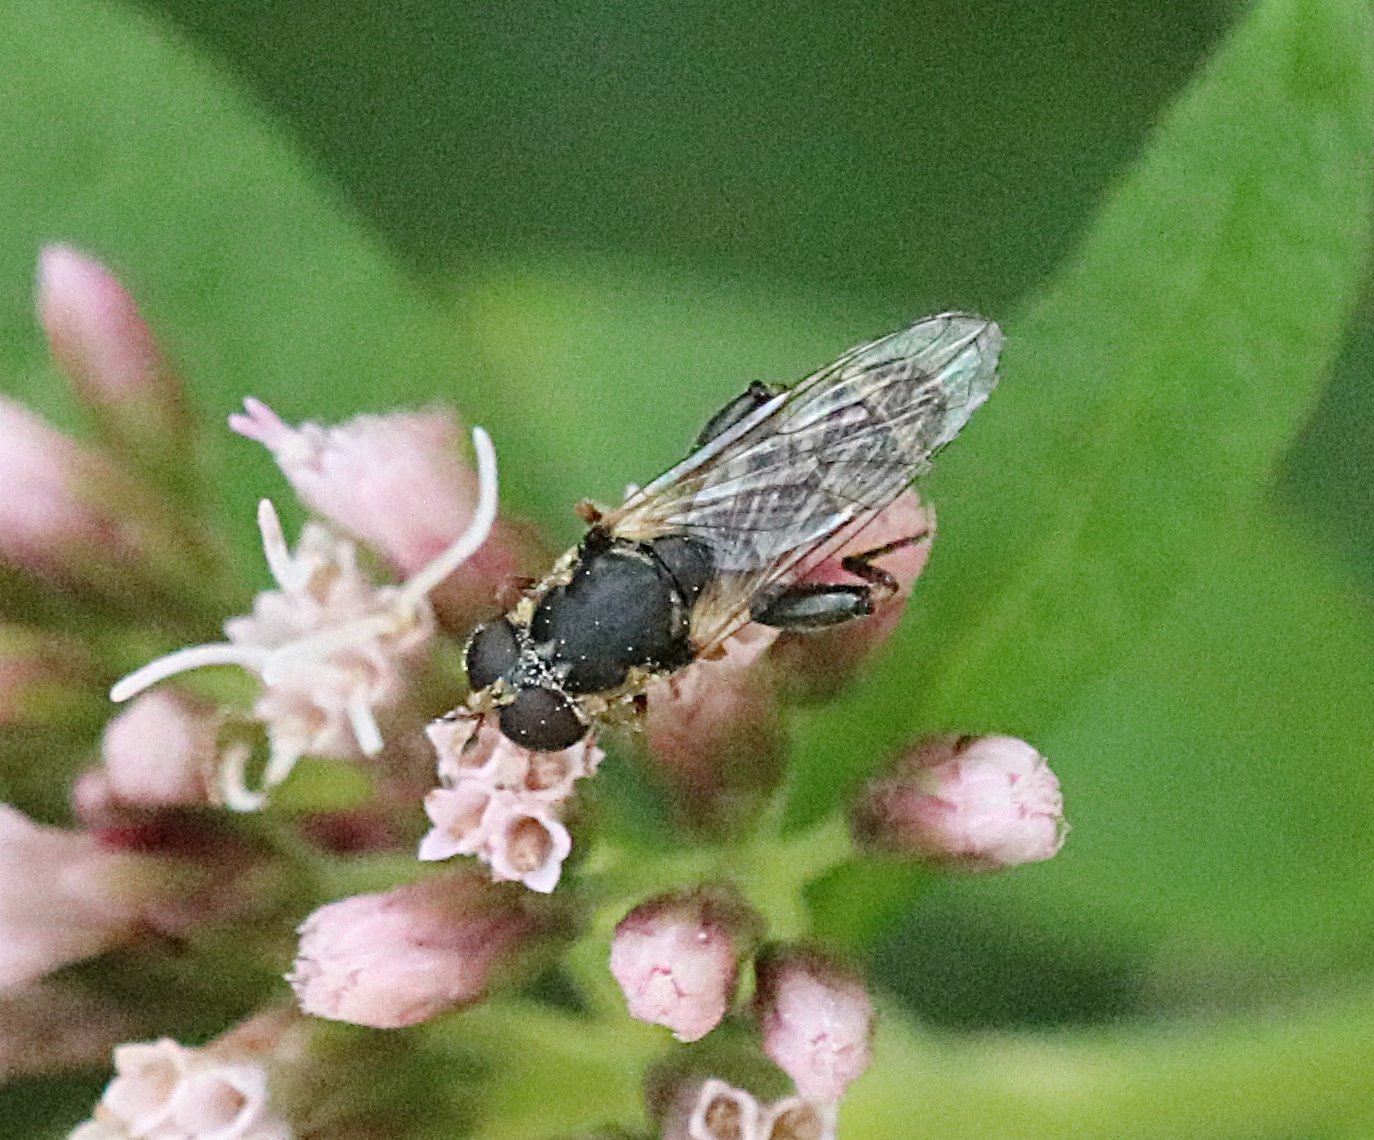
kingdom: Animalia
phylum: Arthropoda
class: Insecta
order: Diptera
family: Syrphidae
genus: Syritta
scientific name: Syritta pipiens
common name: Hover fly
